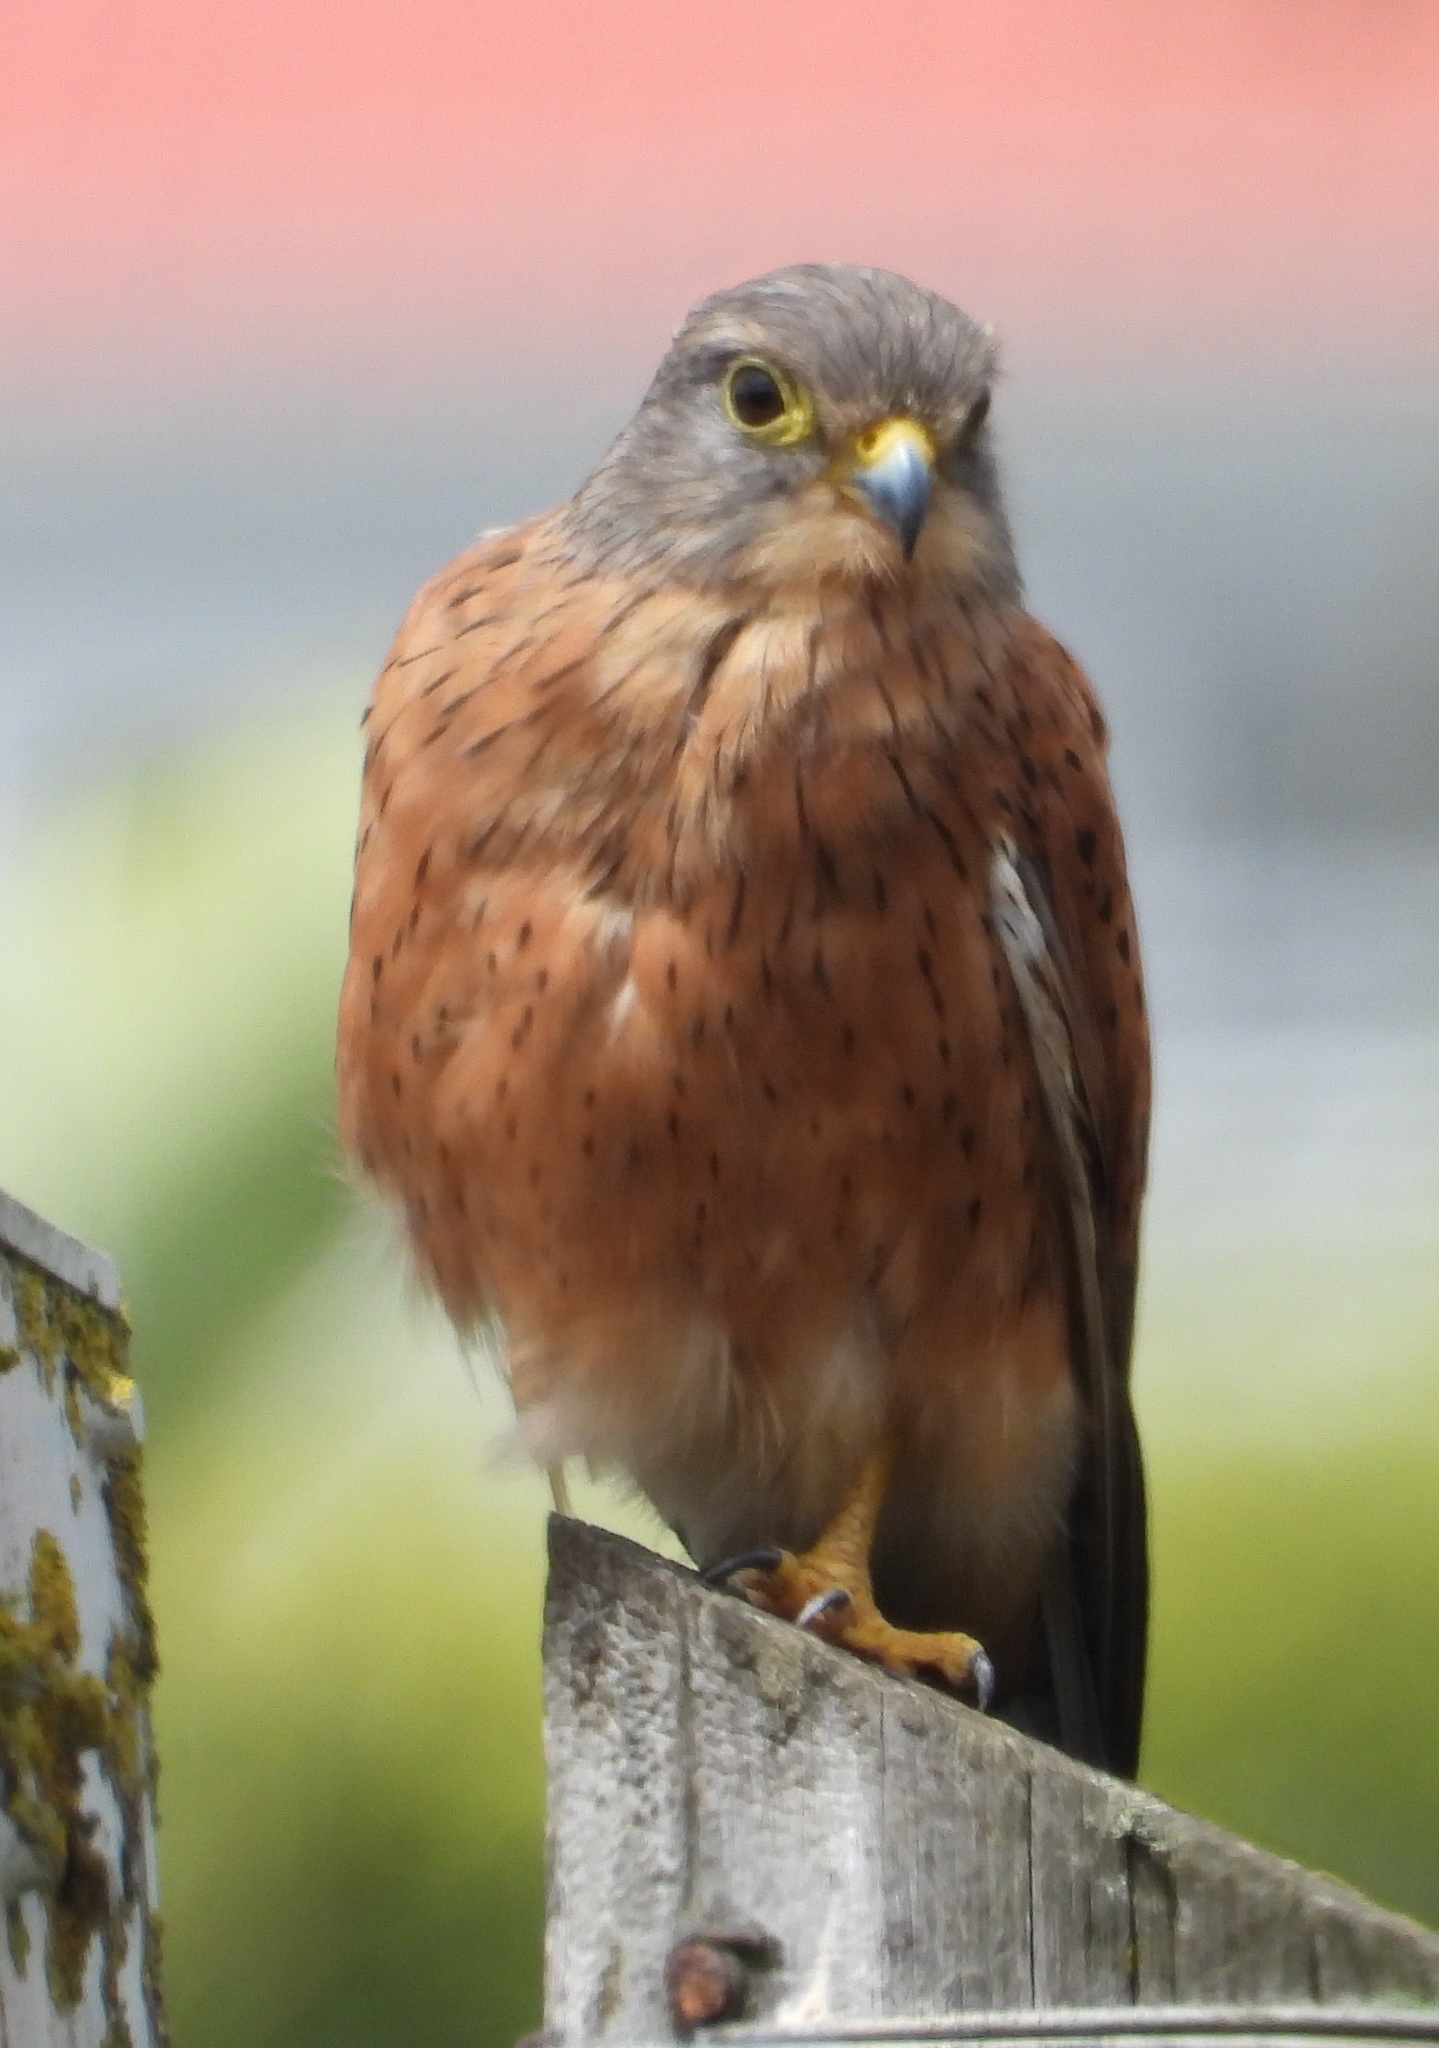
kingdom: Animalia
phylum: Chordata
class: Aves
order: Falconiformes
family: Falconidae
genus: Falco
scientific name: Falco rupicolus
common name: Rock kestrel
